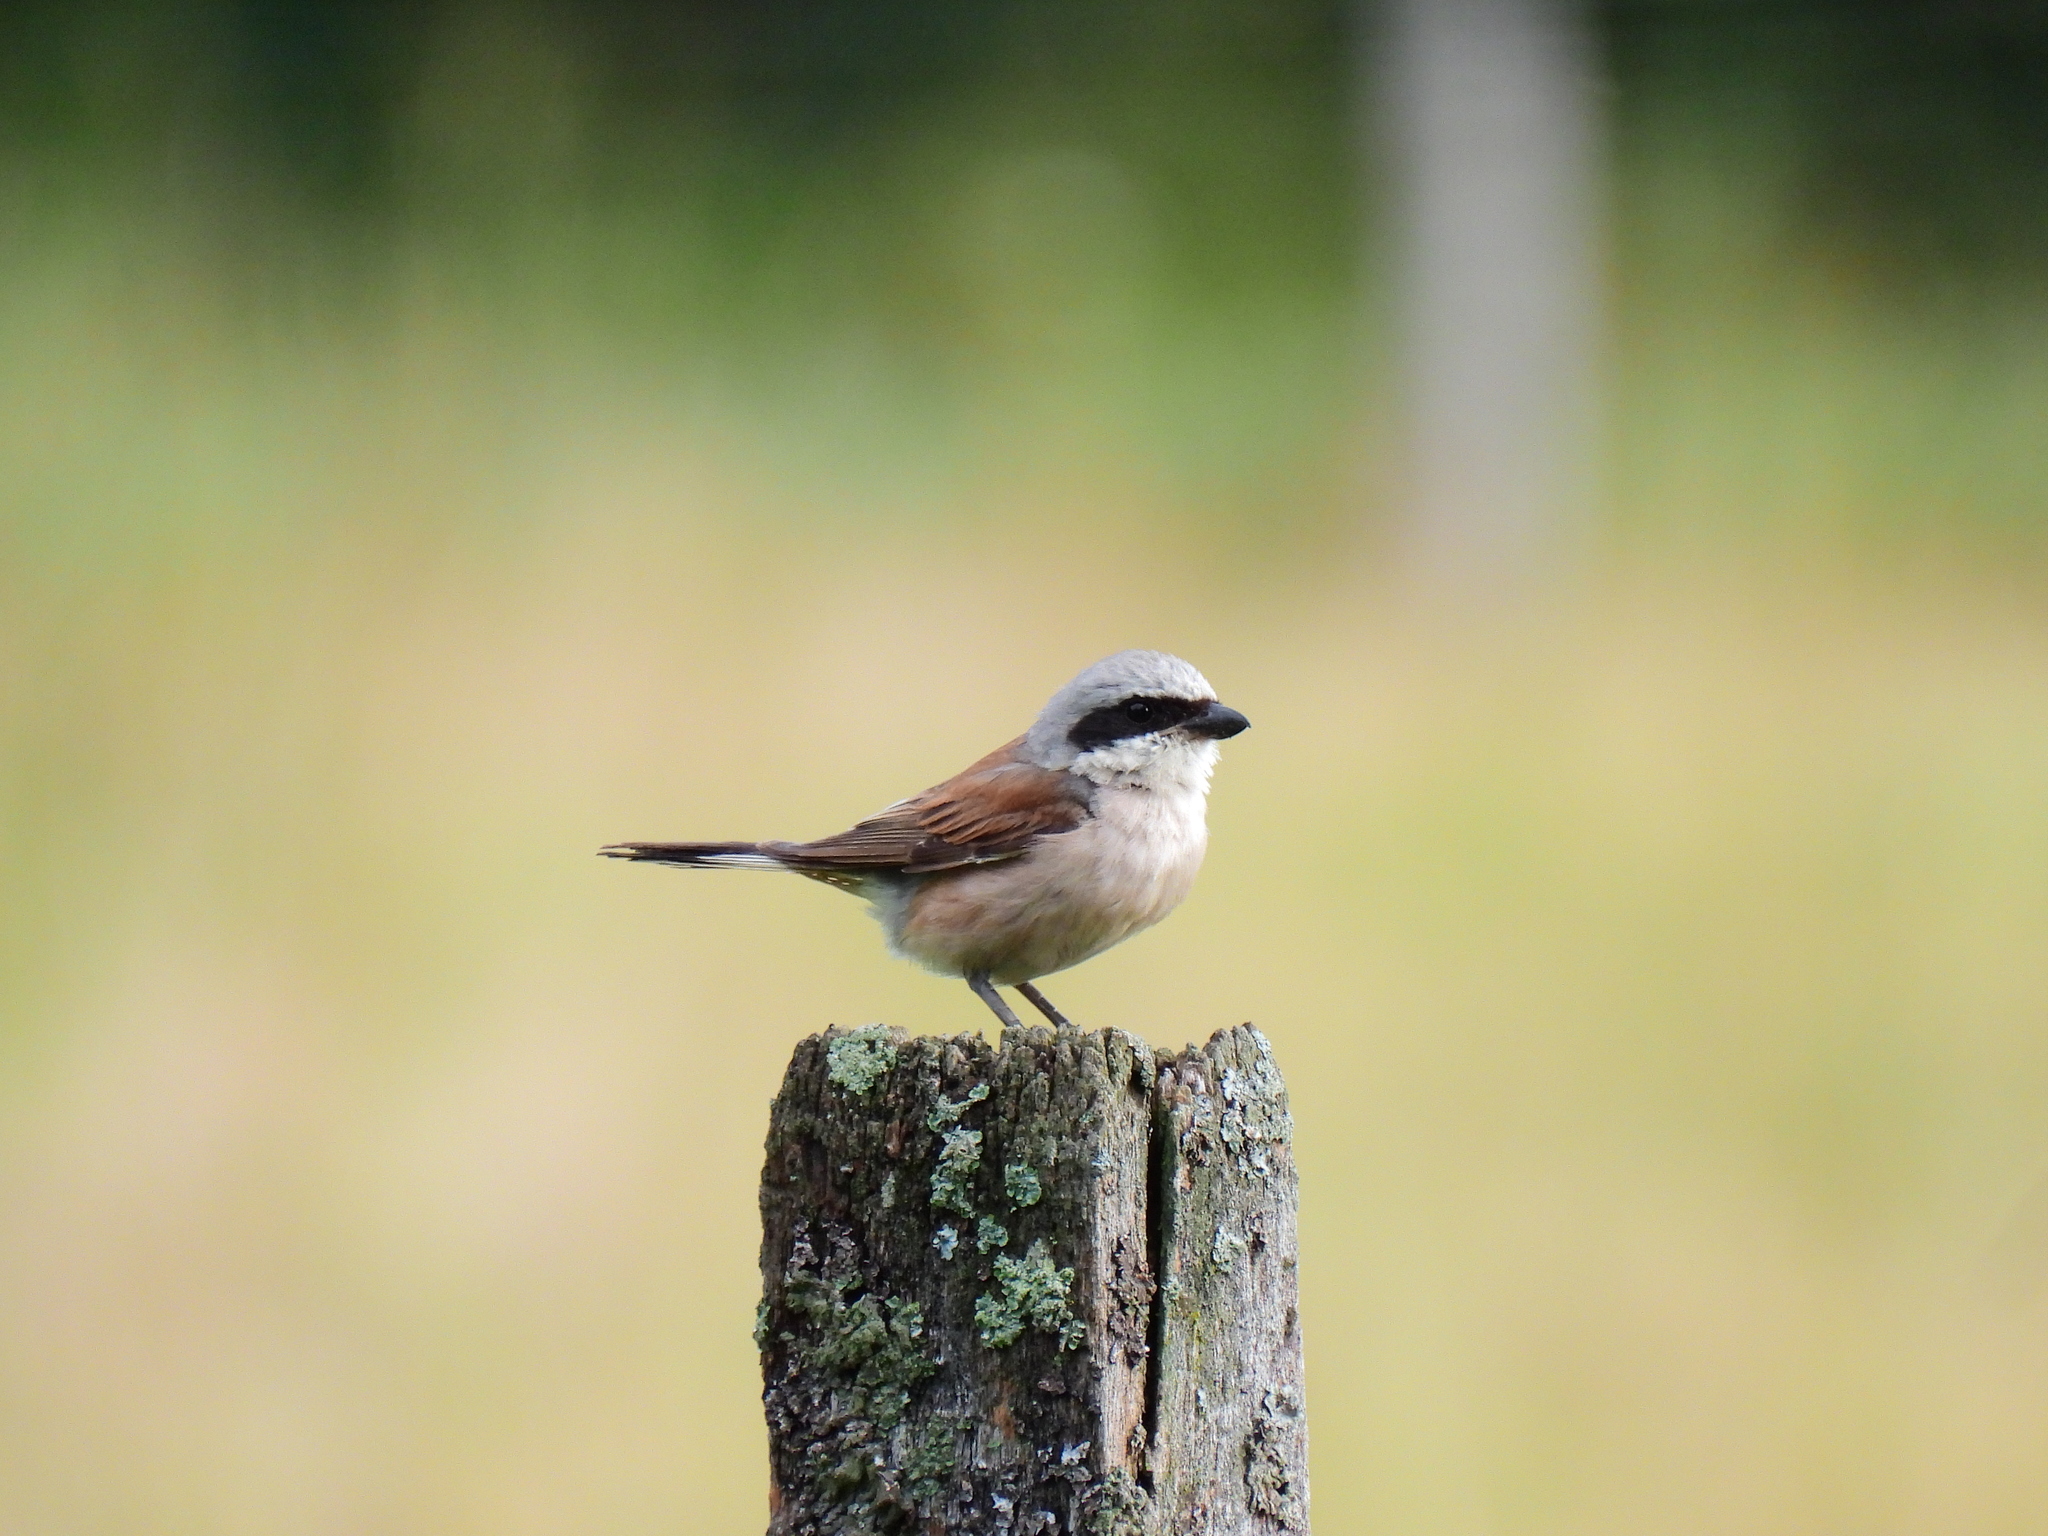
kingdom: Animalia
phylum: Chordata
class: Aves
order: Passeriformes
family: Laniidae
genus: Lanius
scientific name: Lanius collurio
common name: Red-backed shrike
